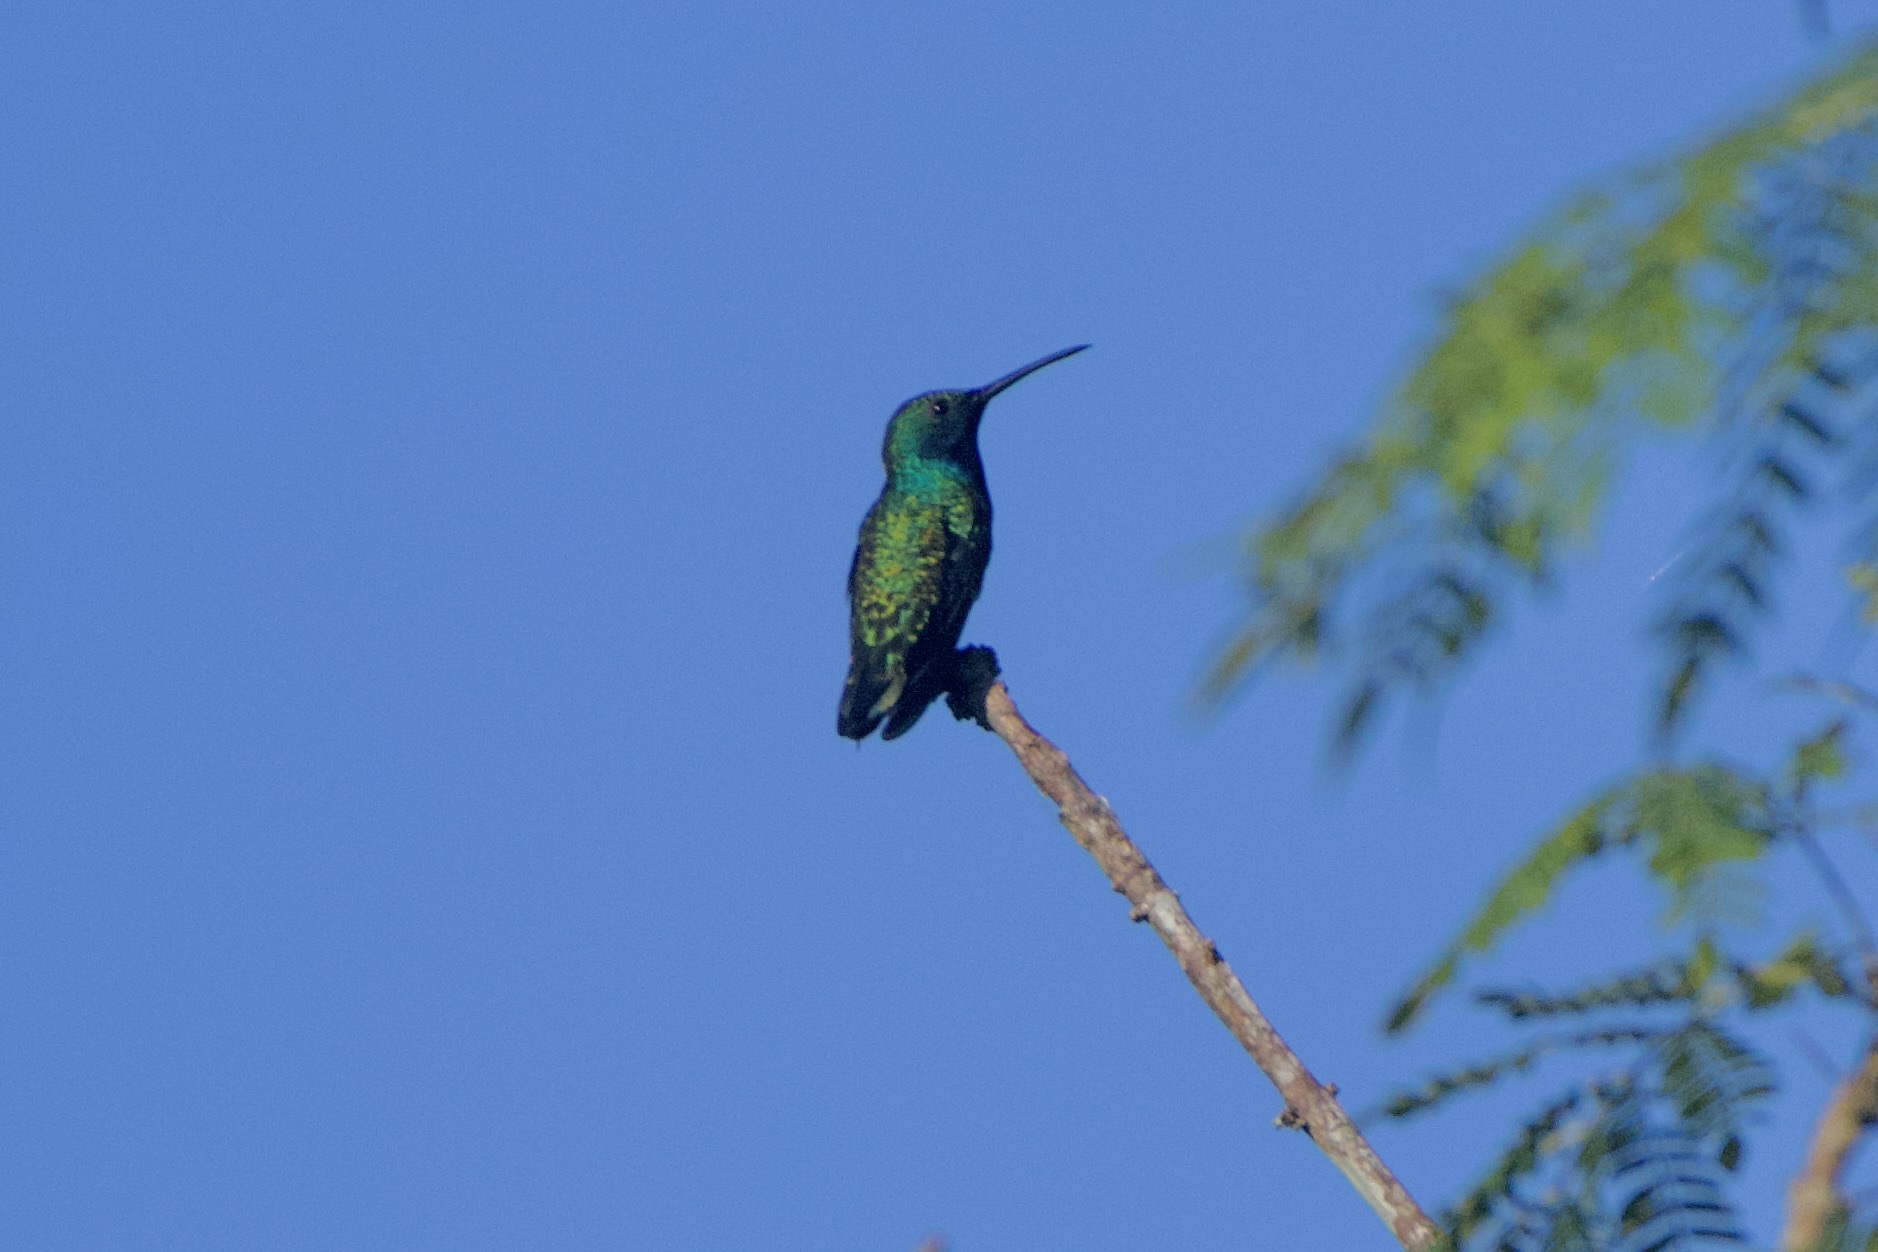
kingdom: Animalia
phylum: Chordata
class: Aves
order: Apodiformes
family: Trochilidae
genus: Anthracothorax
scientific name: Anthracothorax nigricollis
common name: Black-throated mango
